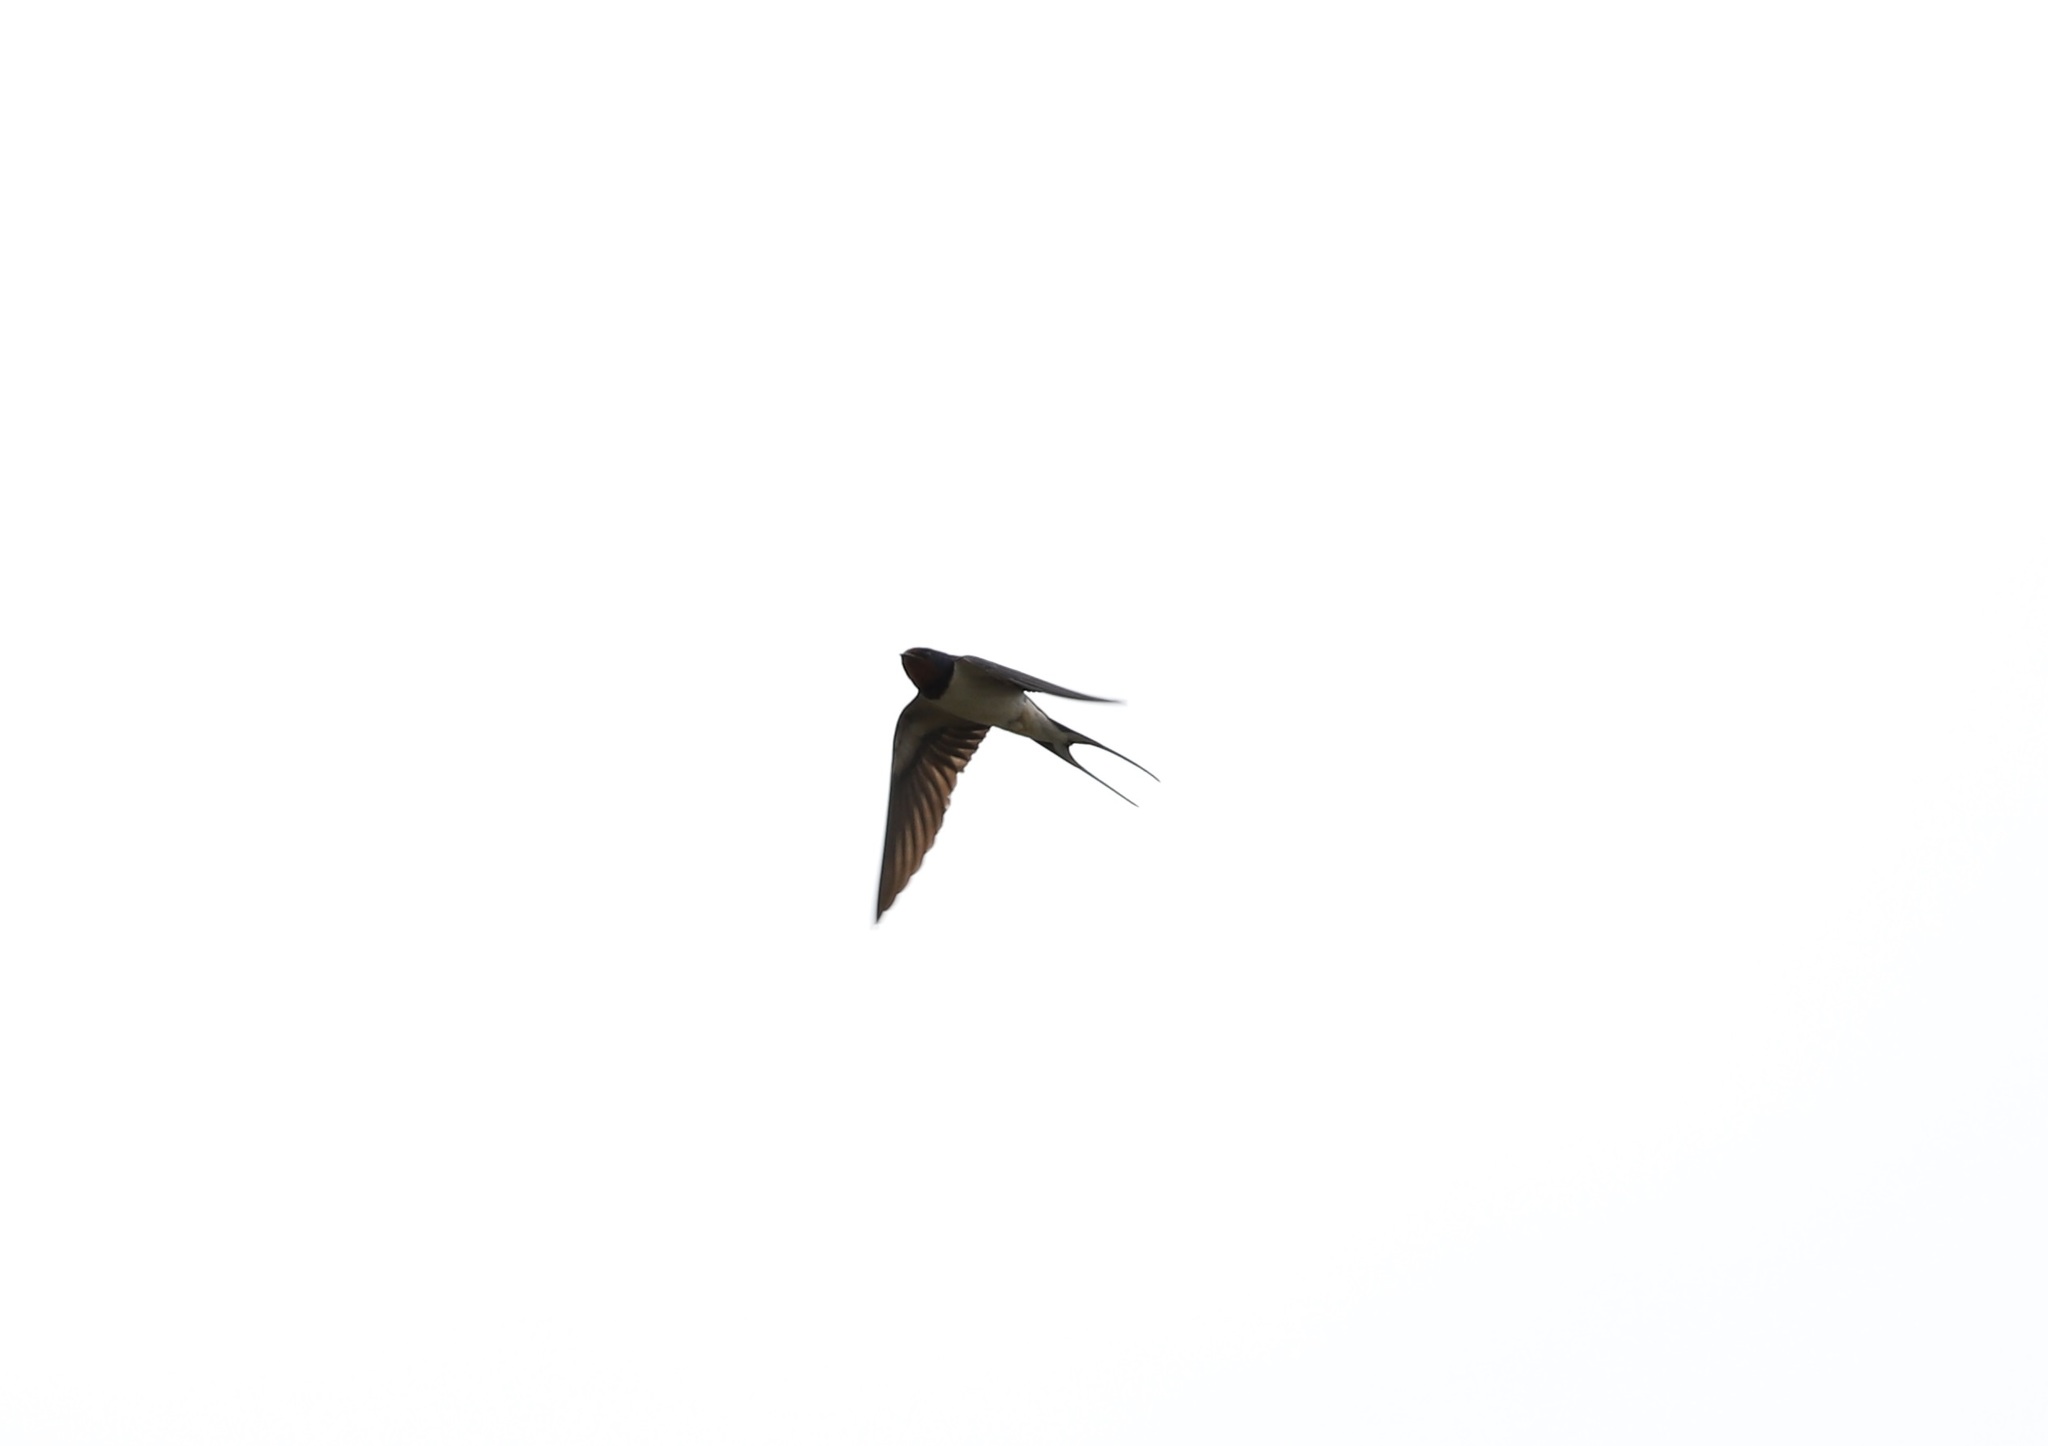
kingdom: Animalia
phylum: Chordata
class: Aves
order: Passeriformes
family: Hirundinidae
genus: Hirundo
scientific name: Hirundo rustica
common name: Barn swallow
